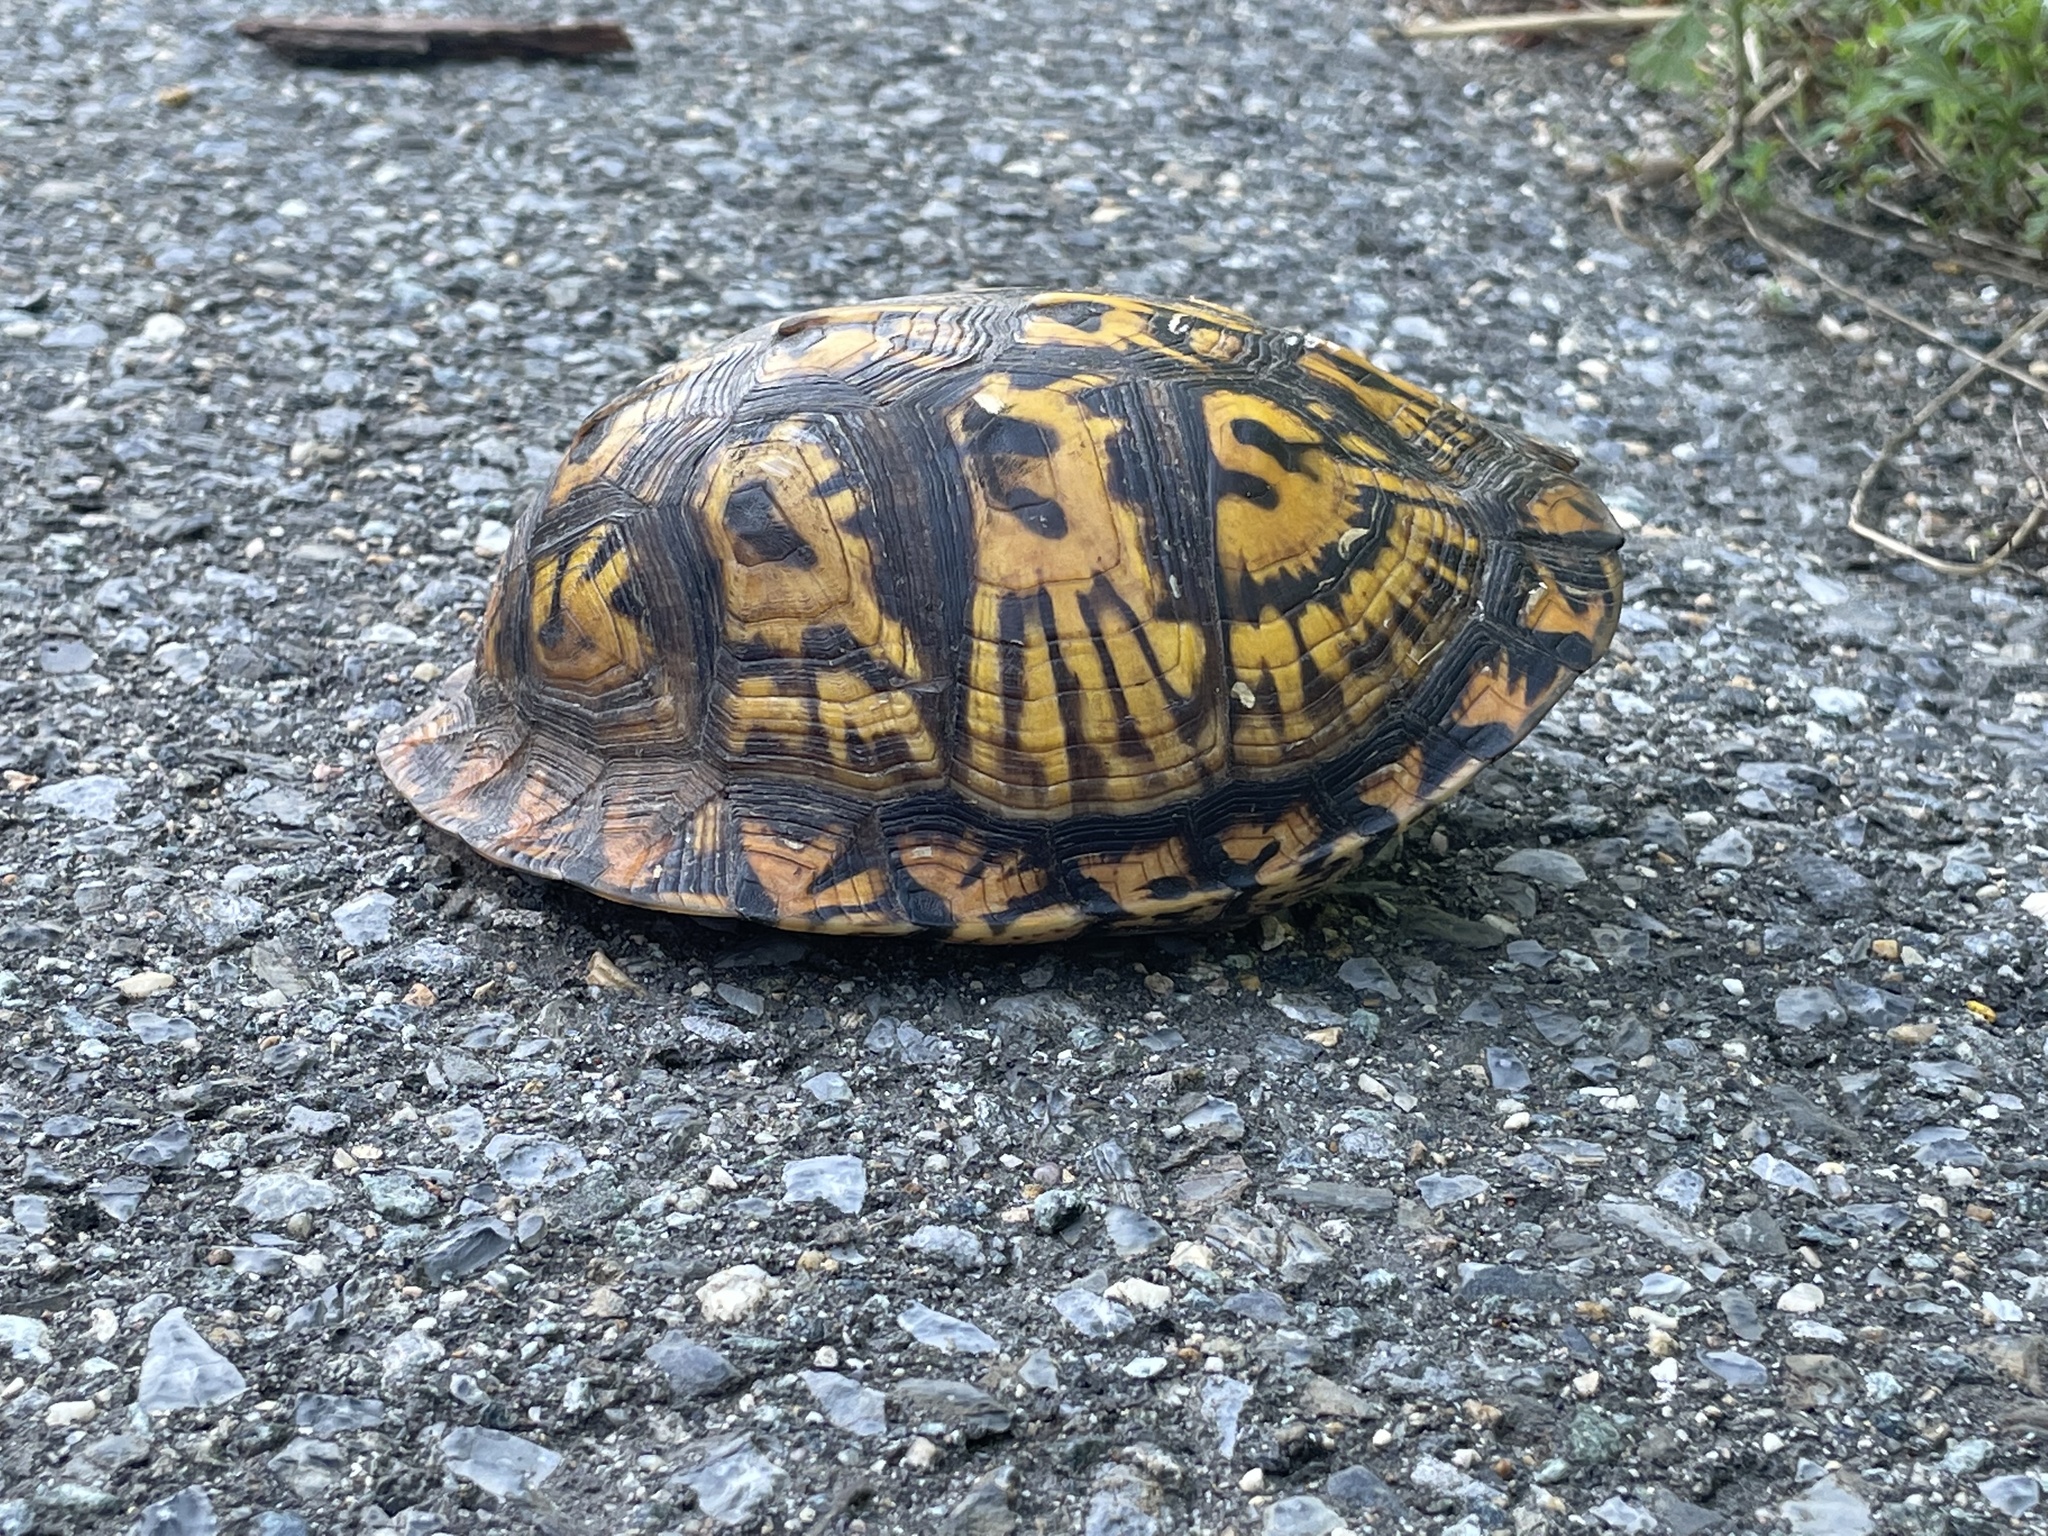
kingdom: Animalia
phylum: Chordata
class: Testudines
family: Emydidae
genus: Terrapene
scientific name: Terrapene carolina
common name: Common box turtle
